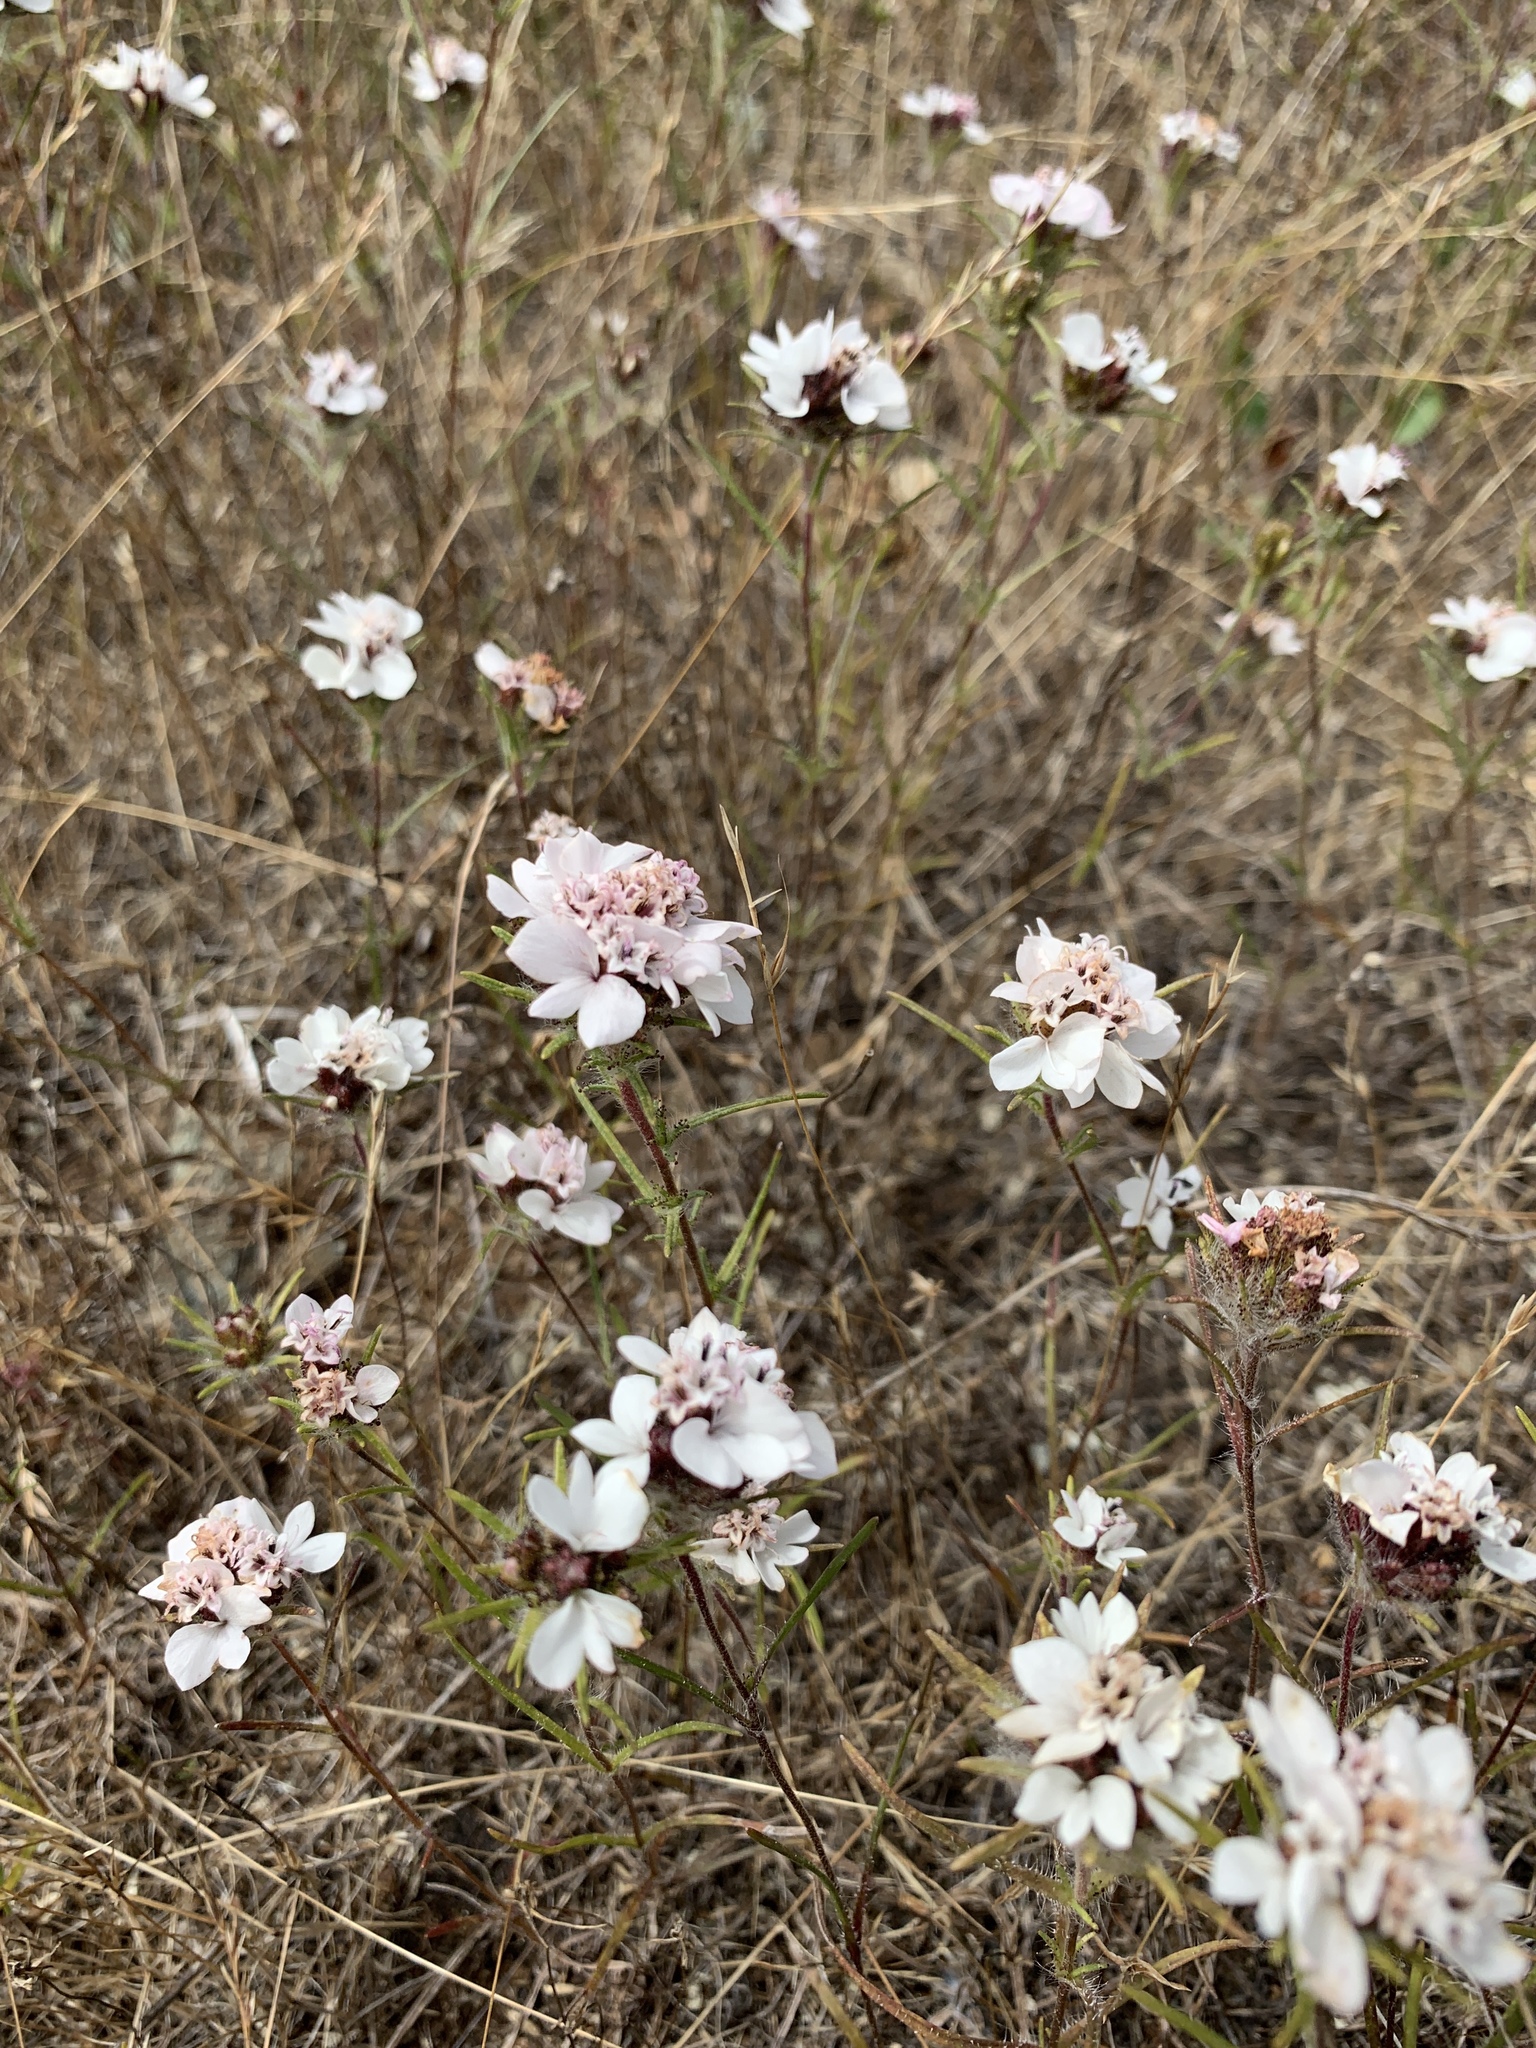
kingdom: Plantae
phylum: Tracheophyta
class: Magnoliopsida
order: Asterales
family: Asteraceae
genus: Calycadenia
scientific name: Calycadenia multiglandulosa
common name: Sticky calycadenia
